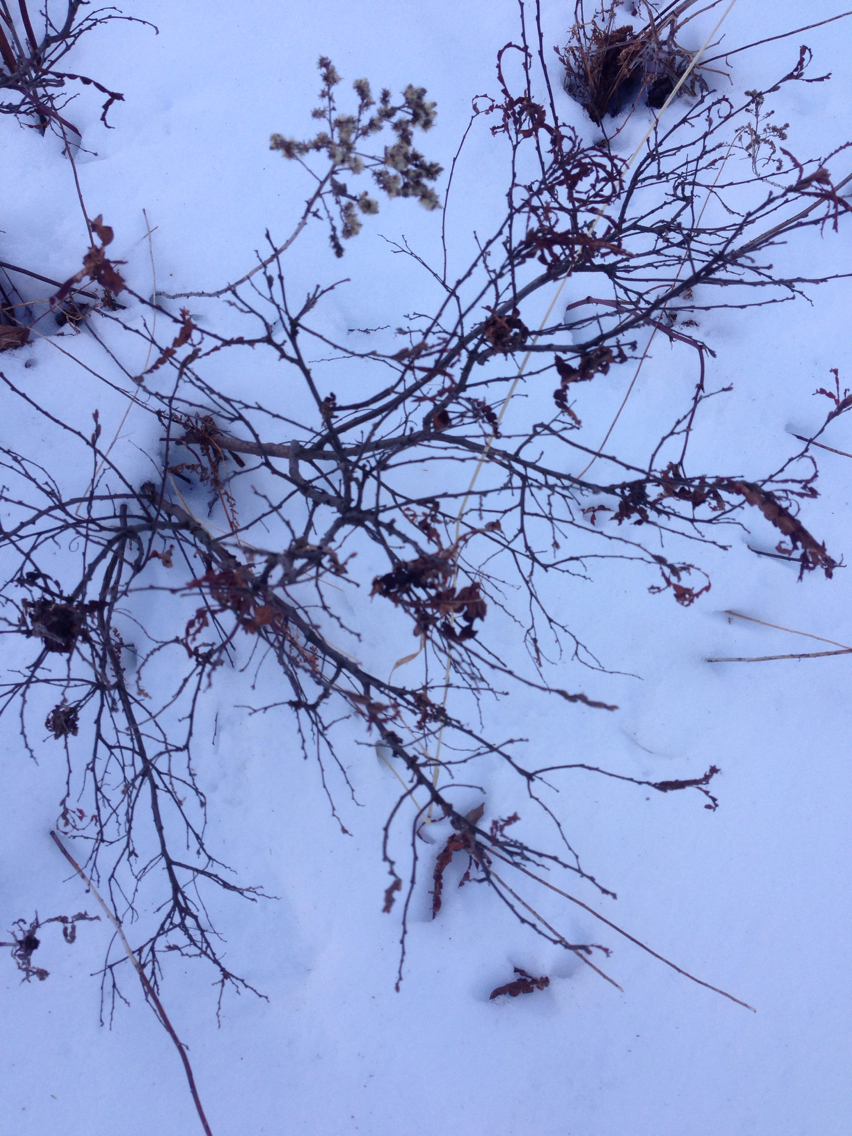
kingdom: Plantae
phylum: Tracheophyta
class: Magnoliopsida
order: Fagales
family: Myricaceae
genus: Comptonia
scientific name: Comptonia peregrina
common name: Sweet-fern
